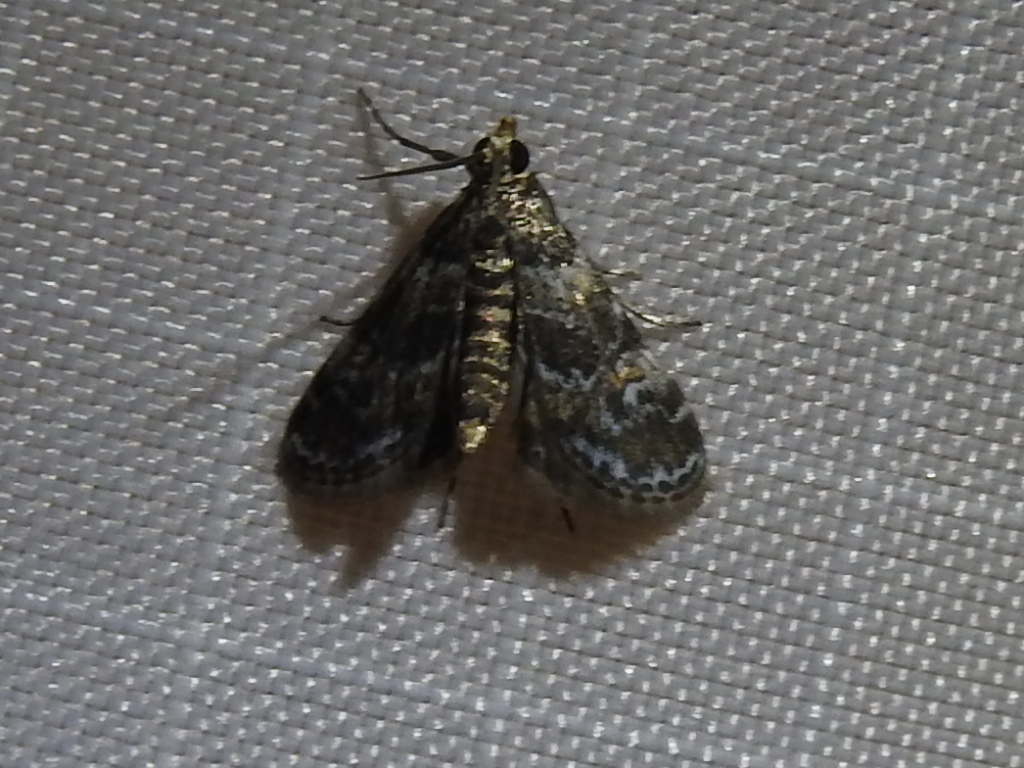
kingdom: Animalia
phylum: Arthropoda
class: Insecta
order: Lepidoptera
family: Crambidae
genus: Elophila
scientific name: Elophila obliteralis
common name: Waterlily leafcutter moth
